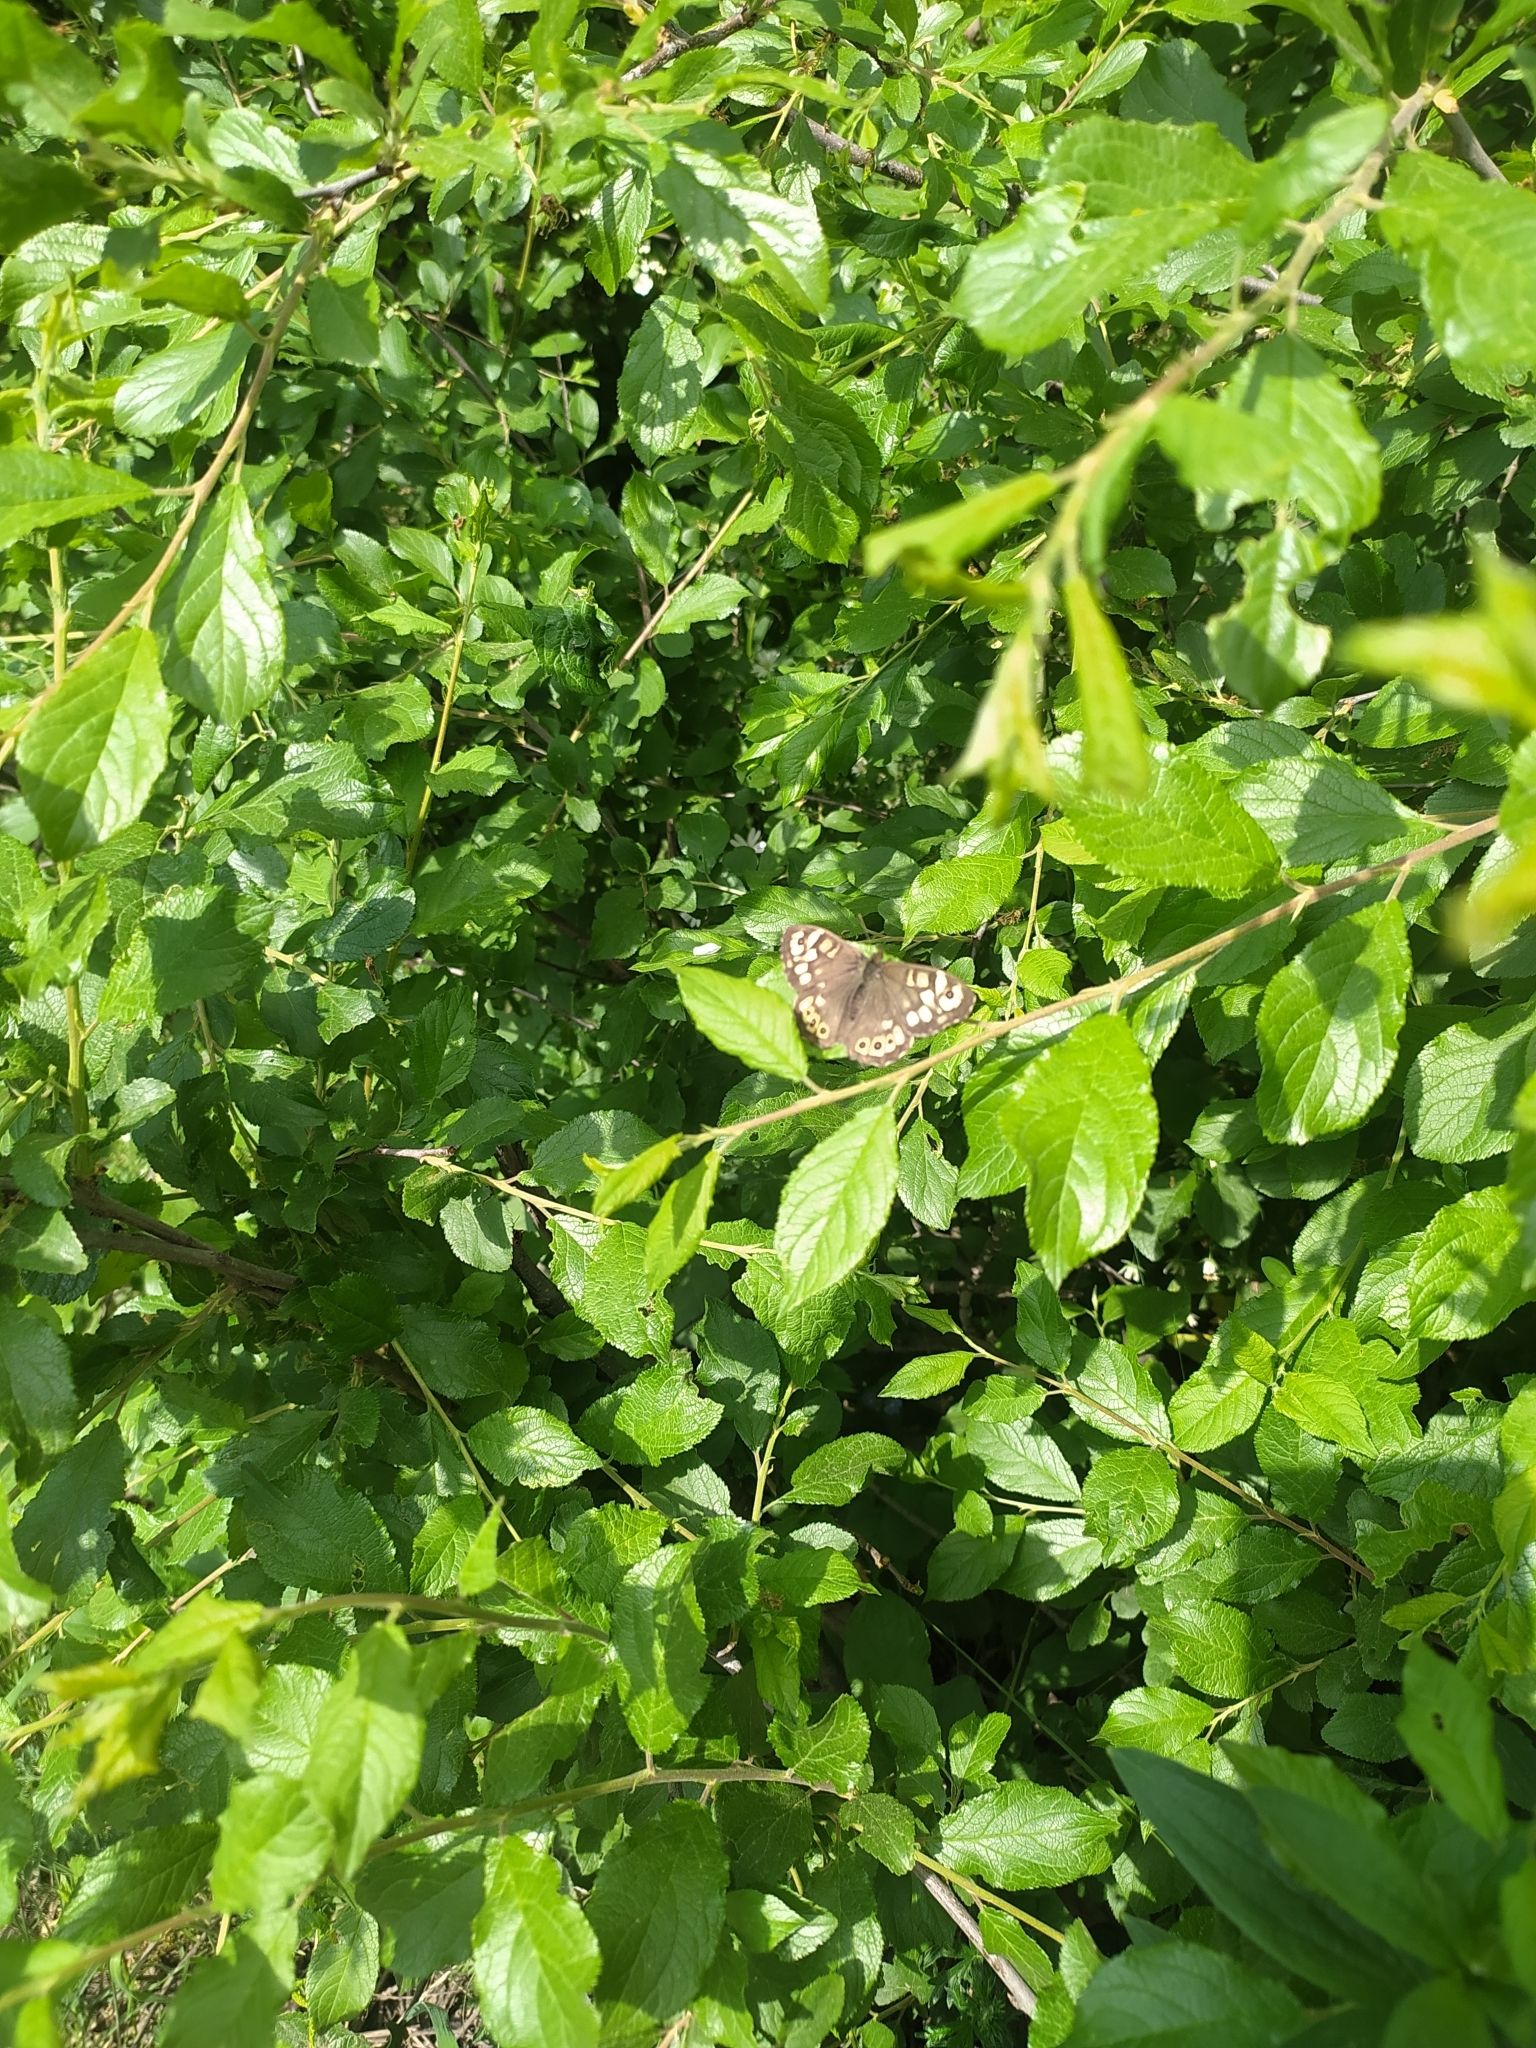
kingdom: Animalia
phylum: Arthropoda
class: Insecta
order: Lepidoptera
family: Nymphalidae
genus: Pararge
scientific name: Pararge aegeria
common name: Speckled wood
